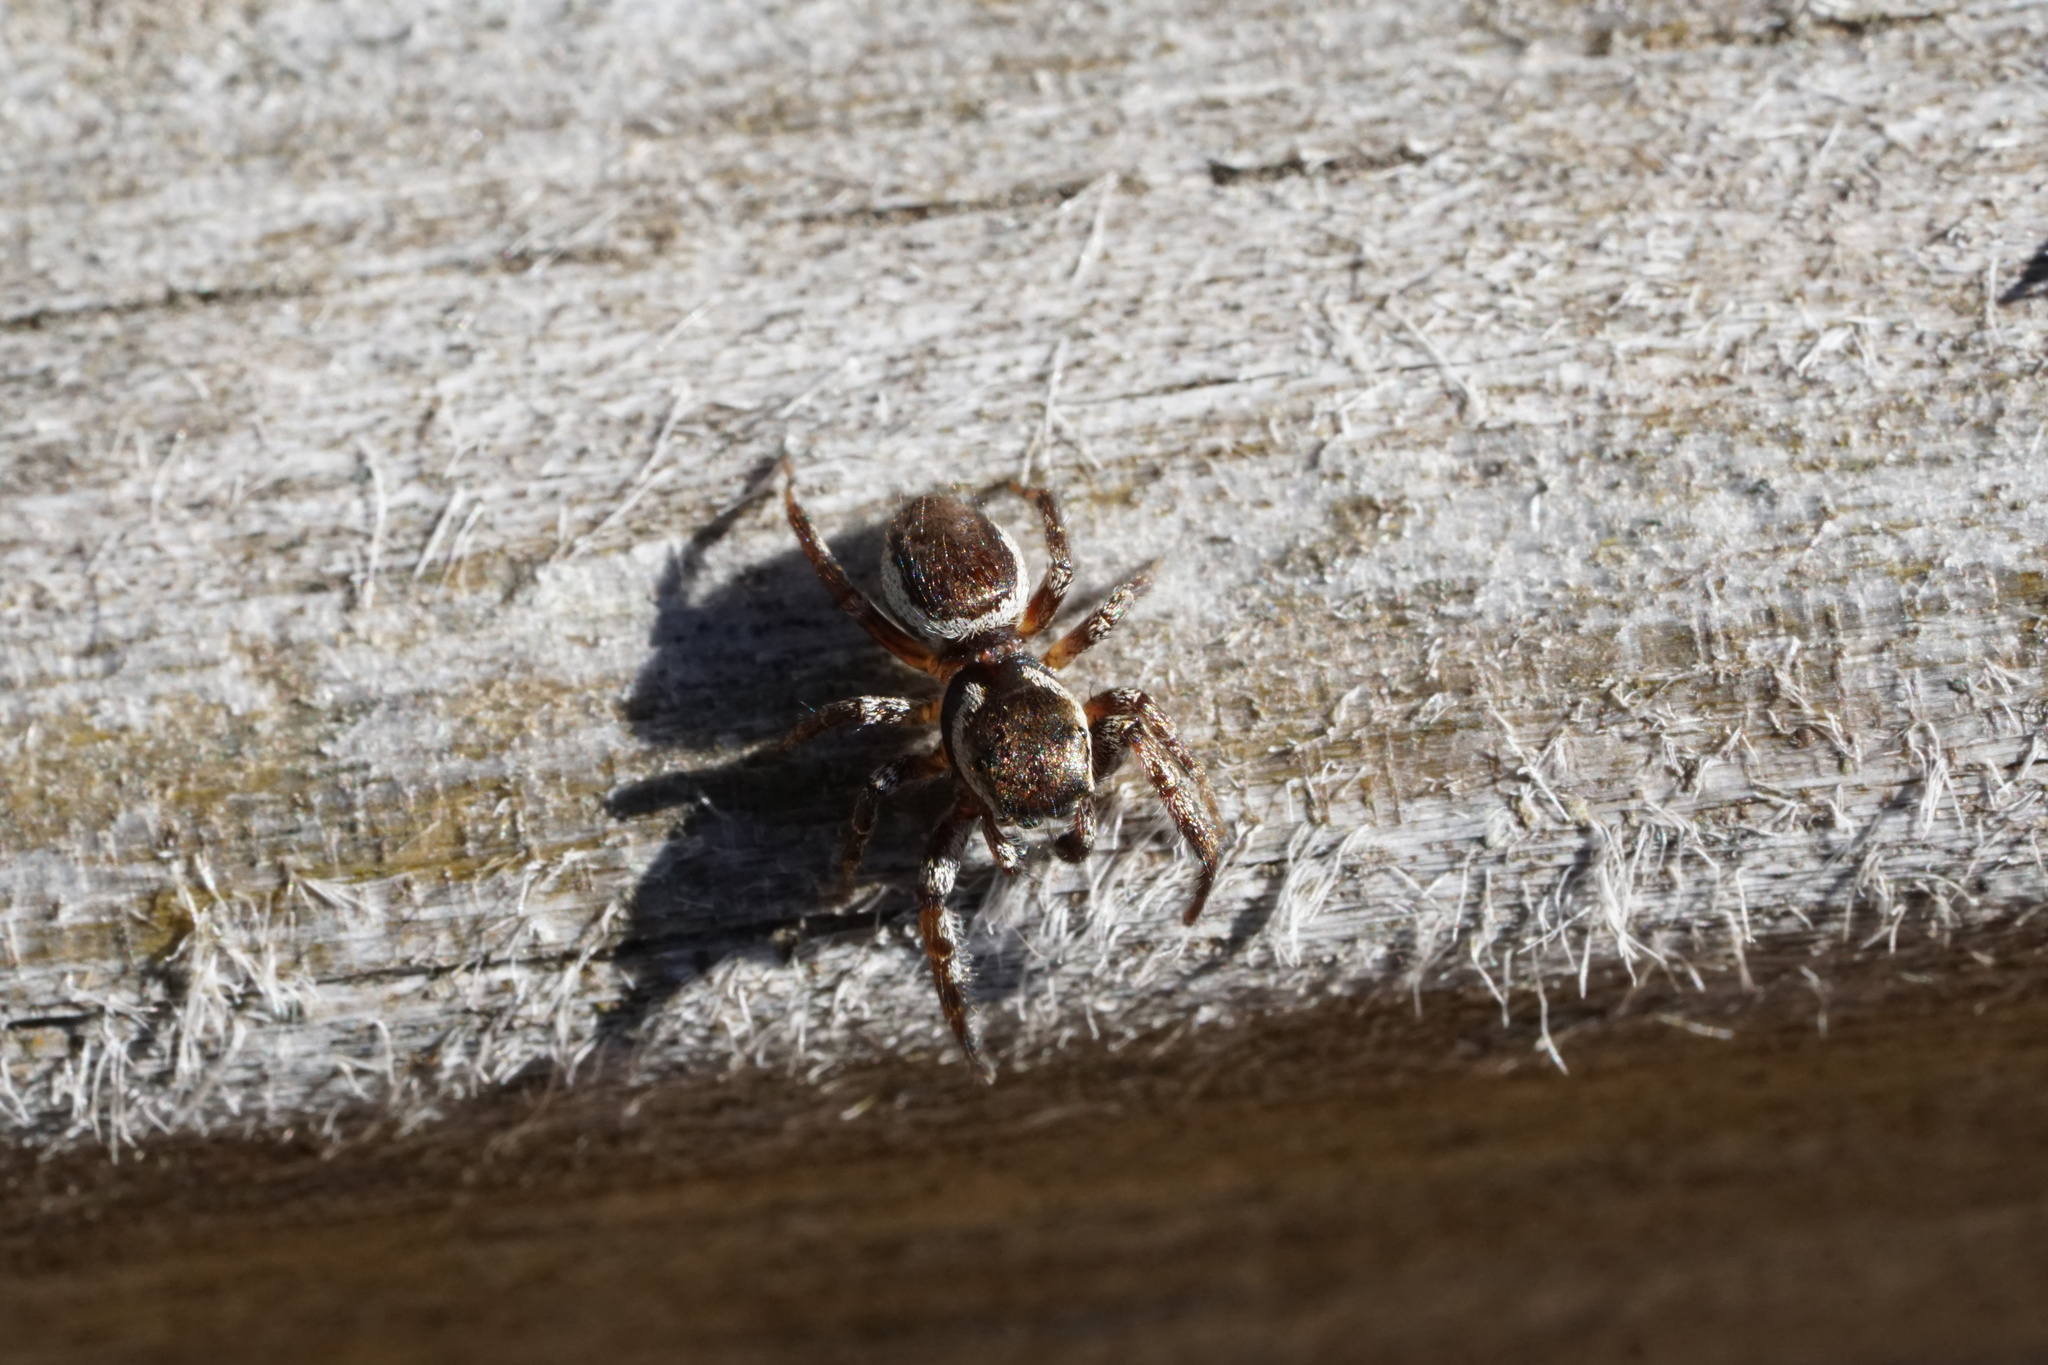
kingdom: Animalia
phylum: Arthropoda
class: Arachnida
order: Araneae
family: Salticidae
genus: Pelegrina
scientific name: Pelegrina exigua
